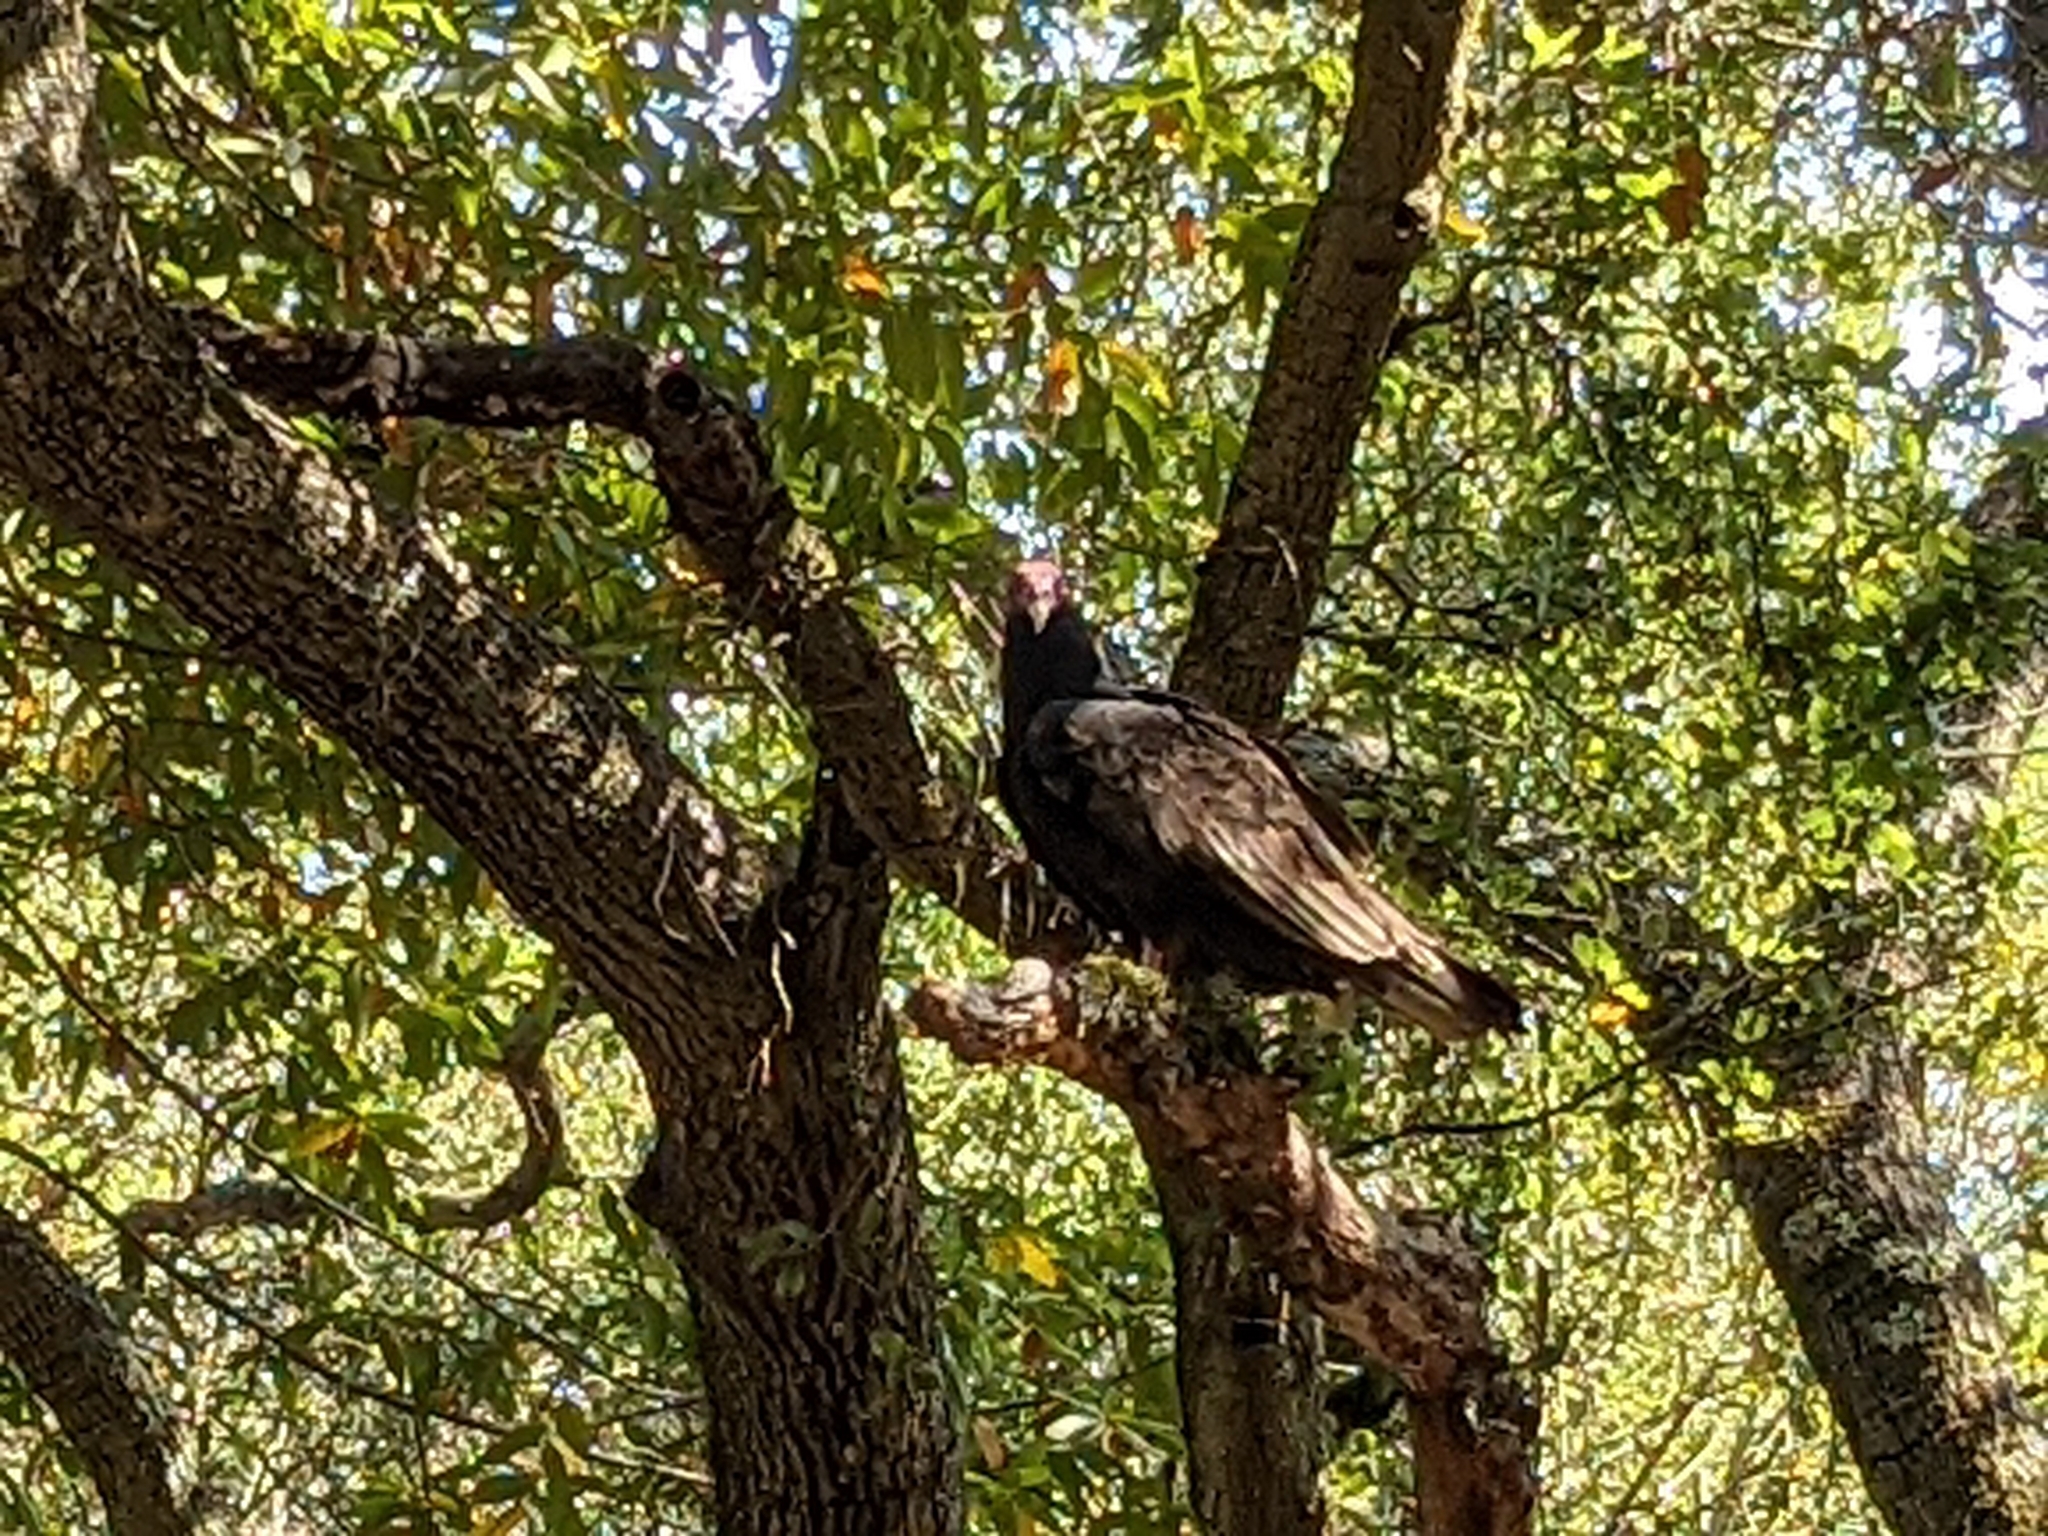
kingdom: Animalia
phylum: Chordata
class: Aves
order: Accipitriformes
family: Cathartidae
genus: Cathartes
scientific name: Cathartes aura
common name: Turkey vulture
